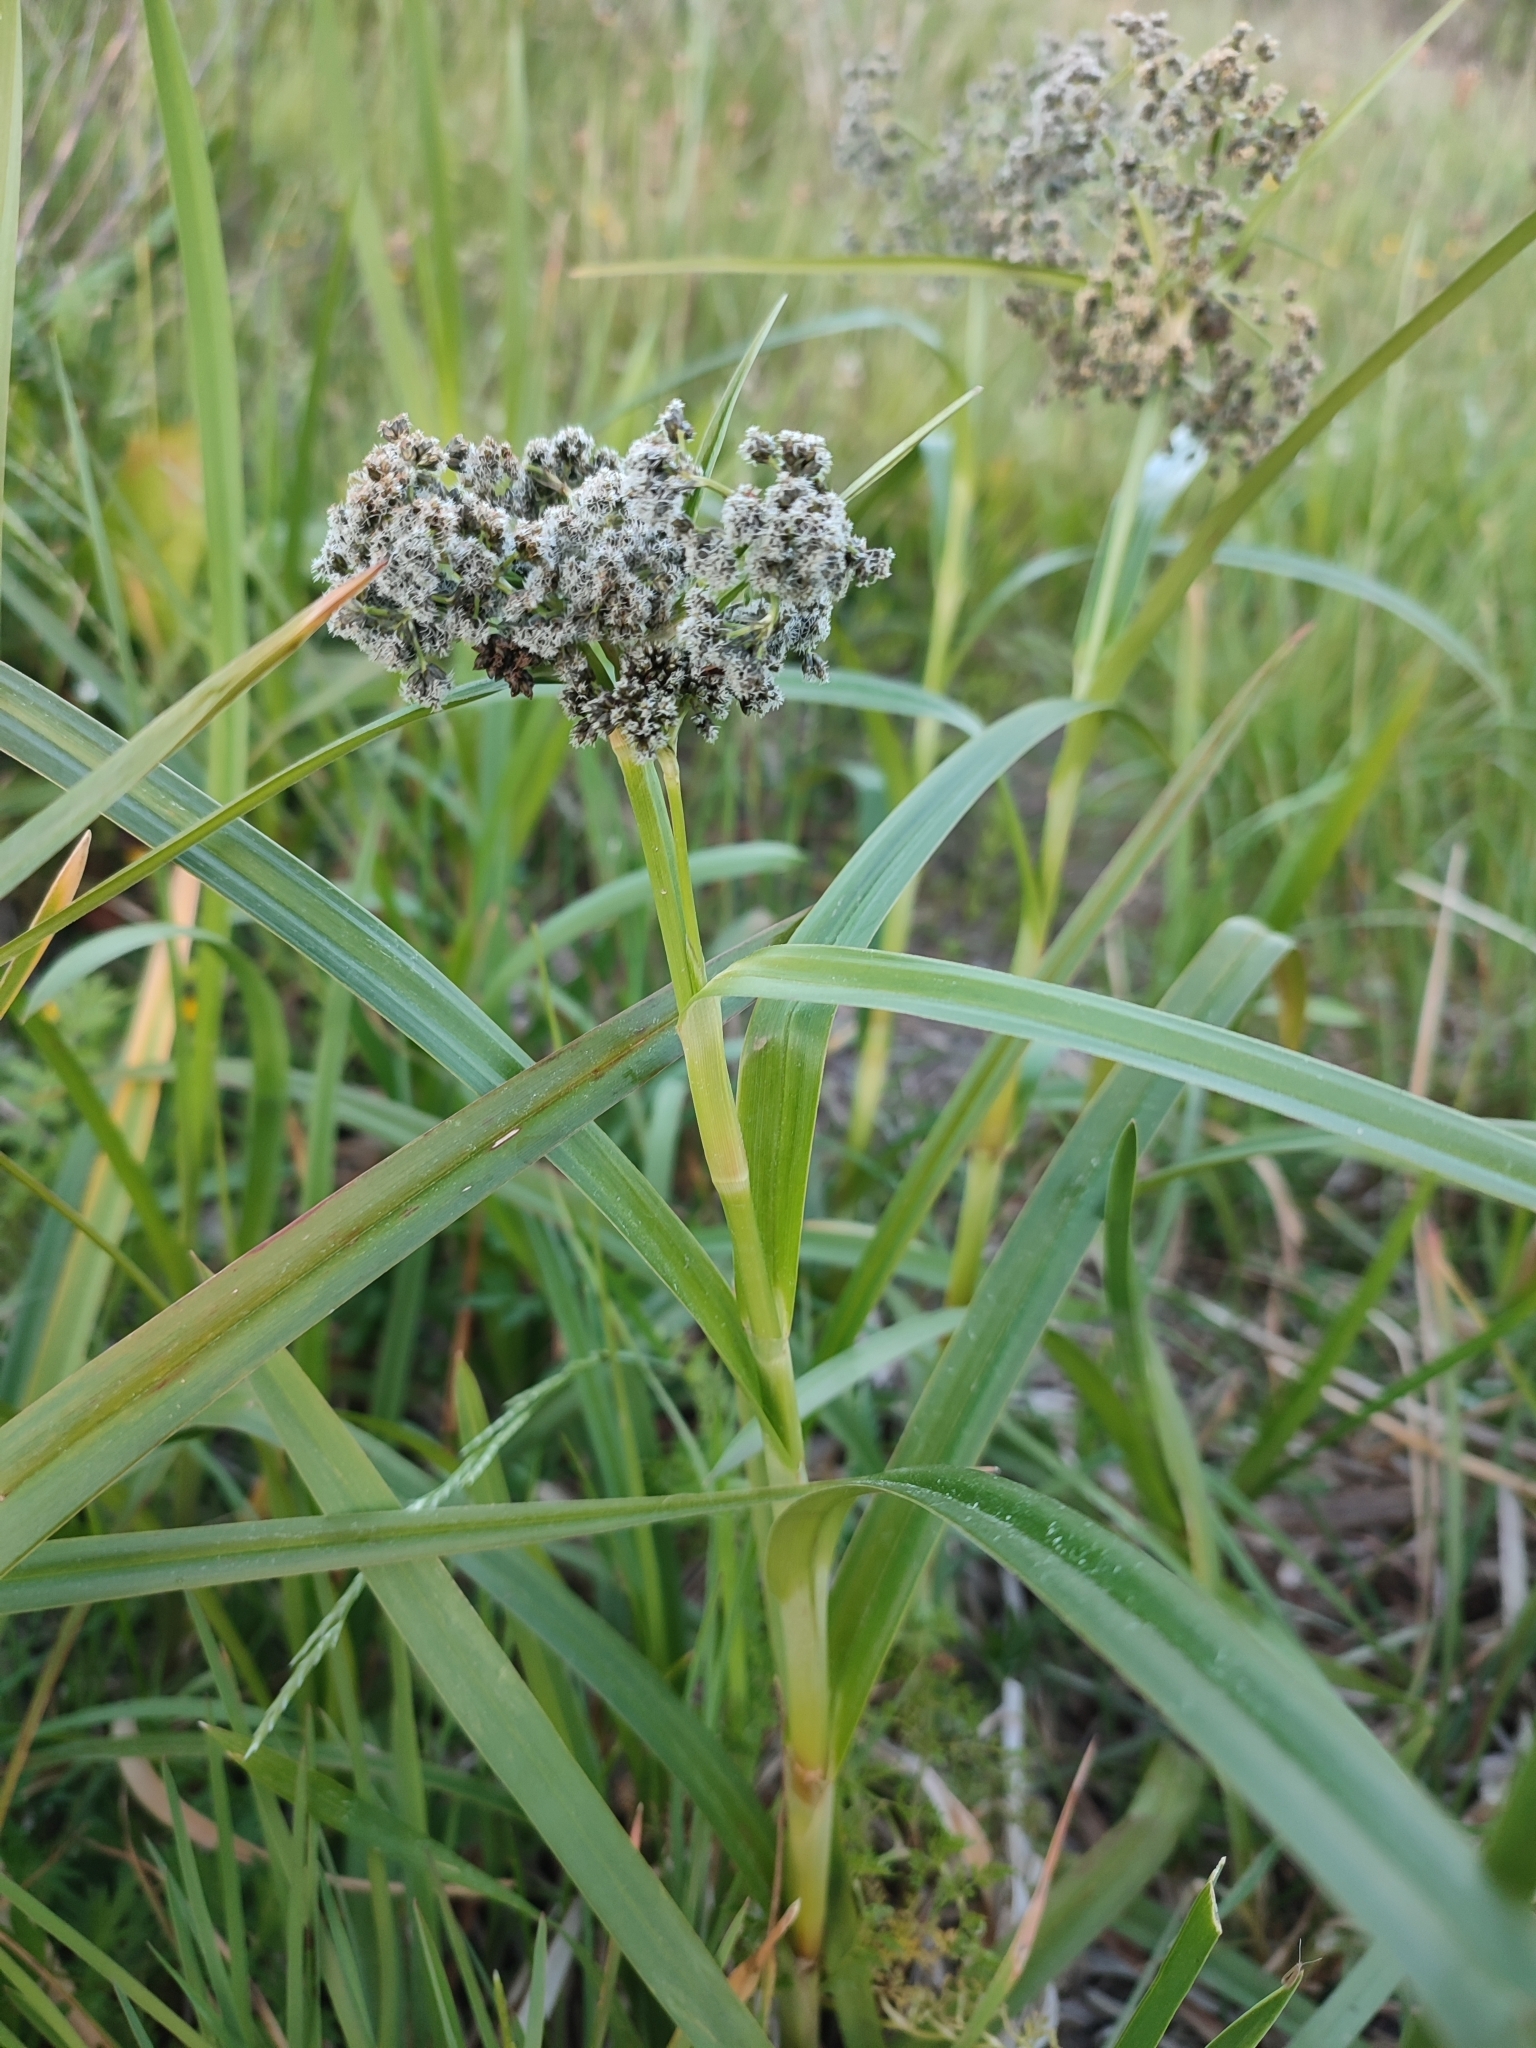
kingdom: Plantae
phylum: Tracheophyta
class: Liliopsida
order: Poales
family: Cyperaceae
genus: Scirpus
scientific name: Scirpus sylvaticus
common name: Wood club-rush
